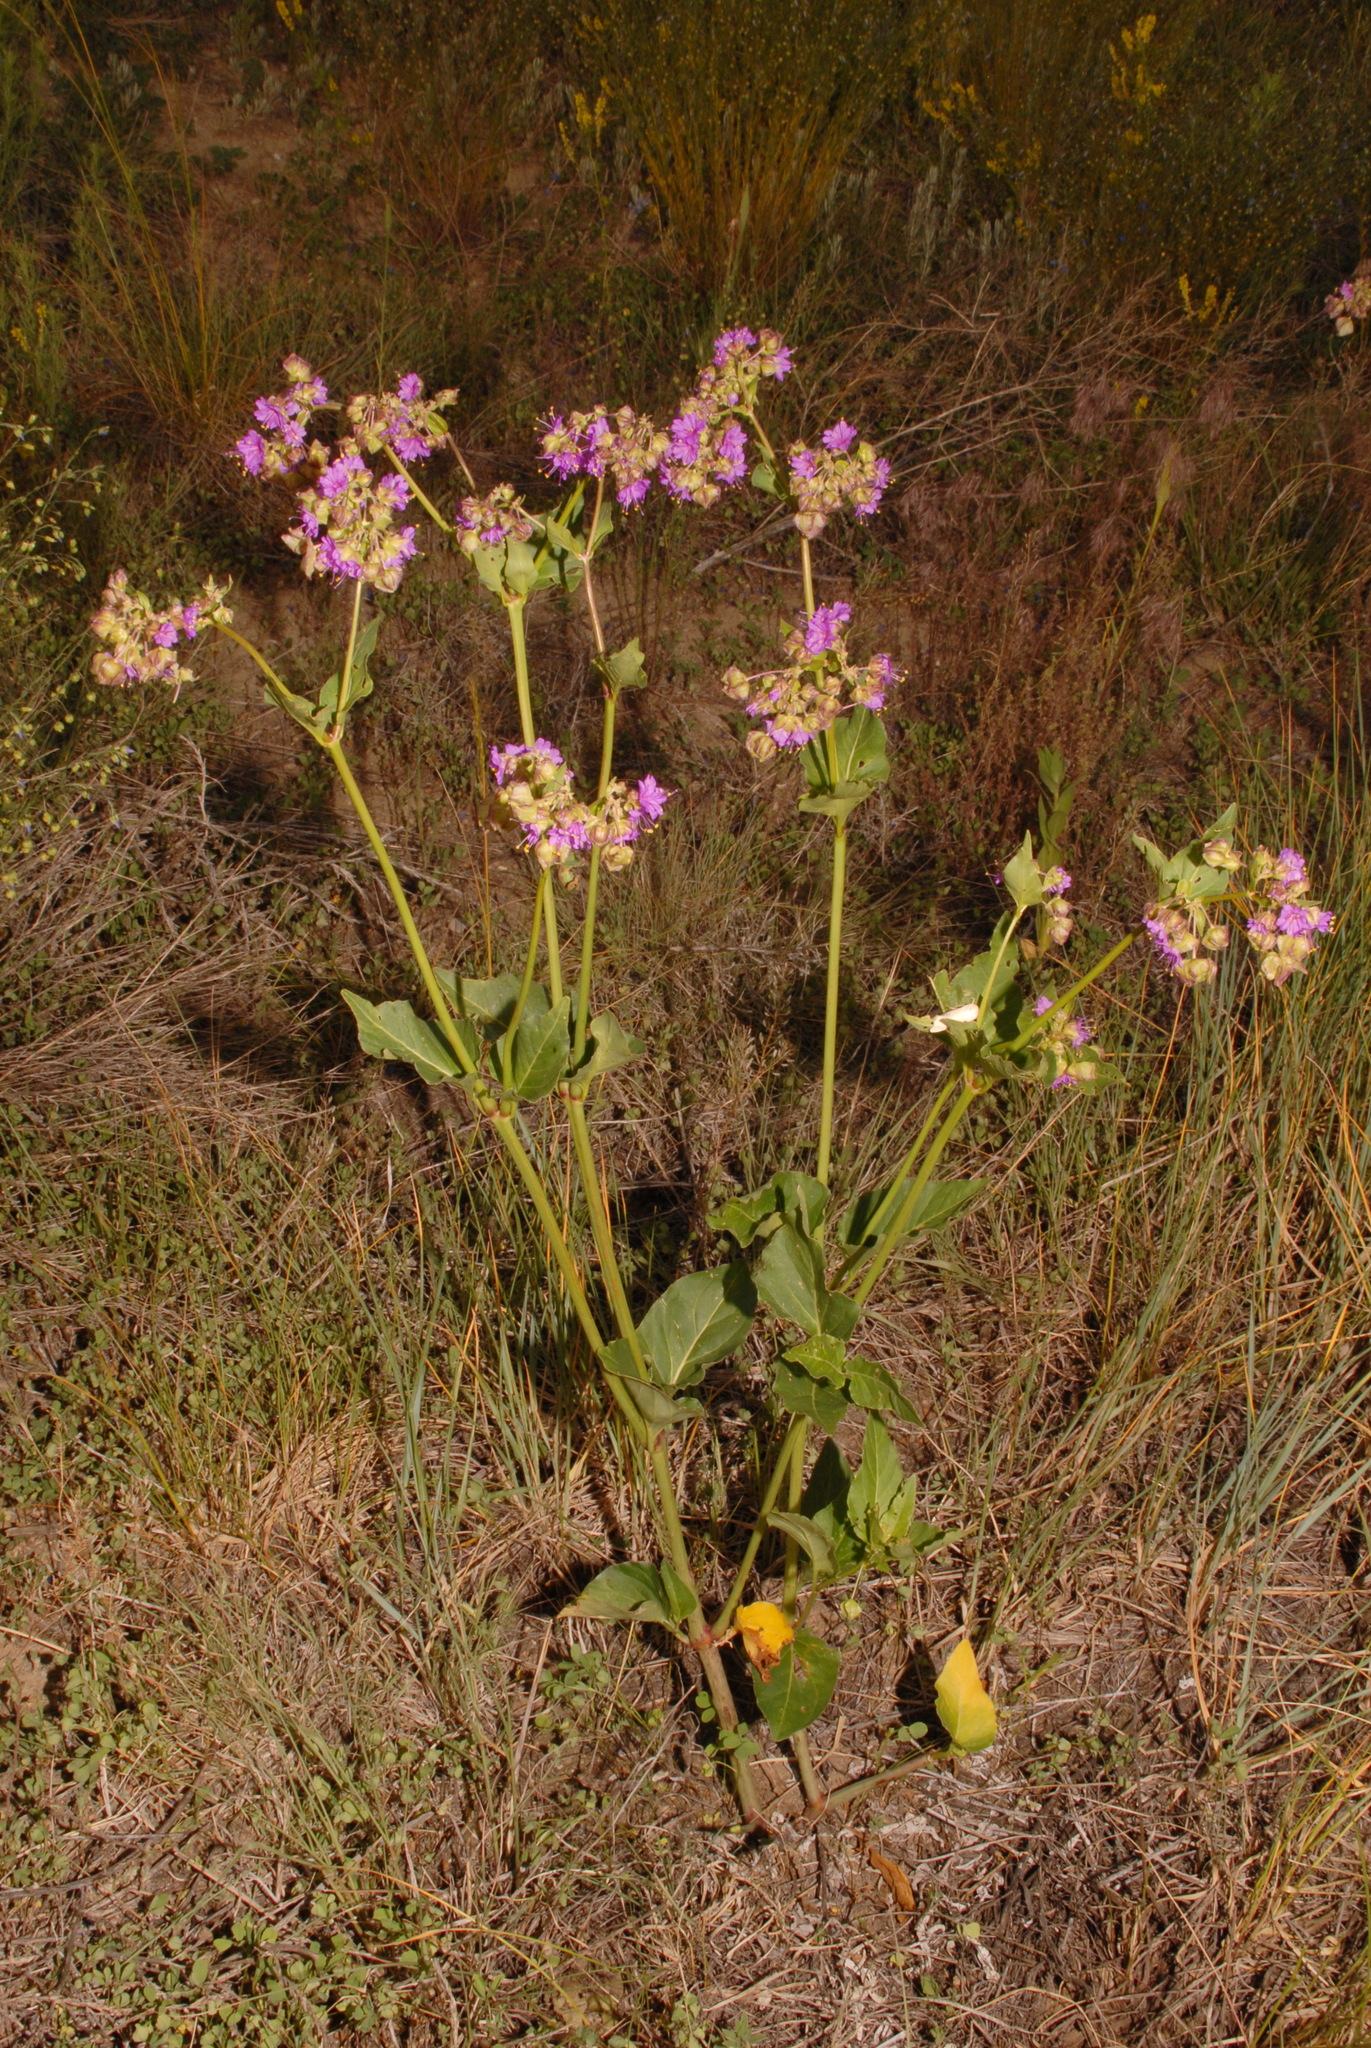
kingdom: Plantae
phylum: Tracheophyta
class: Magnoliopsida
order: Caryophyllales
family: Nyctaginaceae
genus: Mirabilis
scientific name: Mirabilis nyctaginea
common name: Umbrella wort
